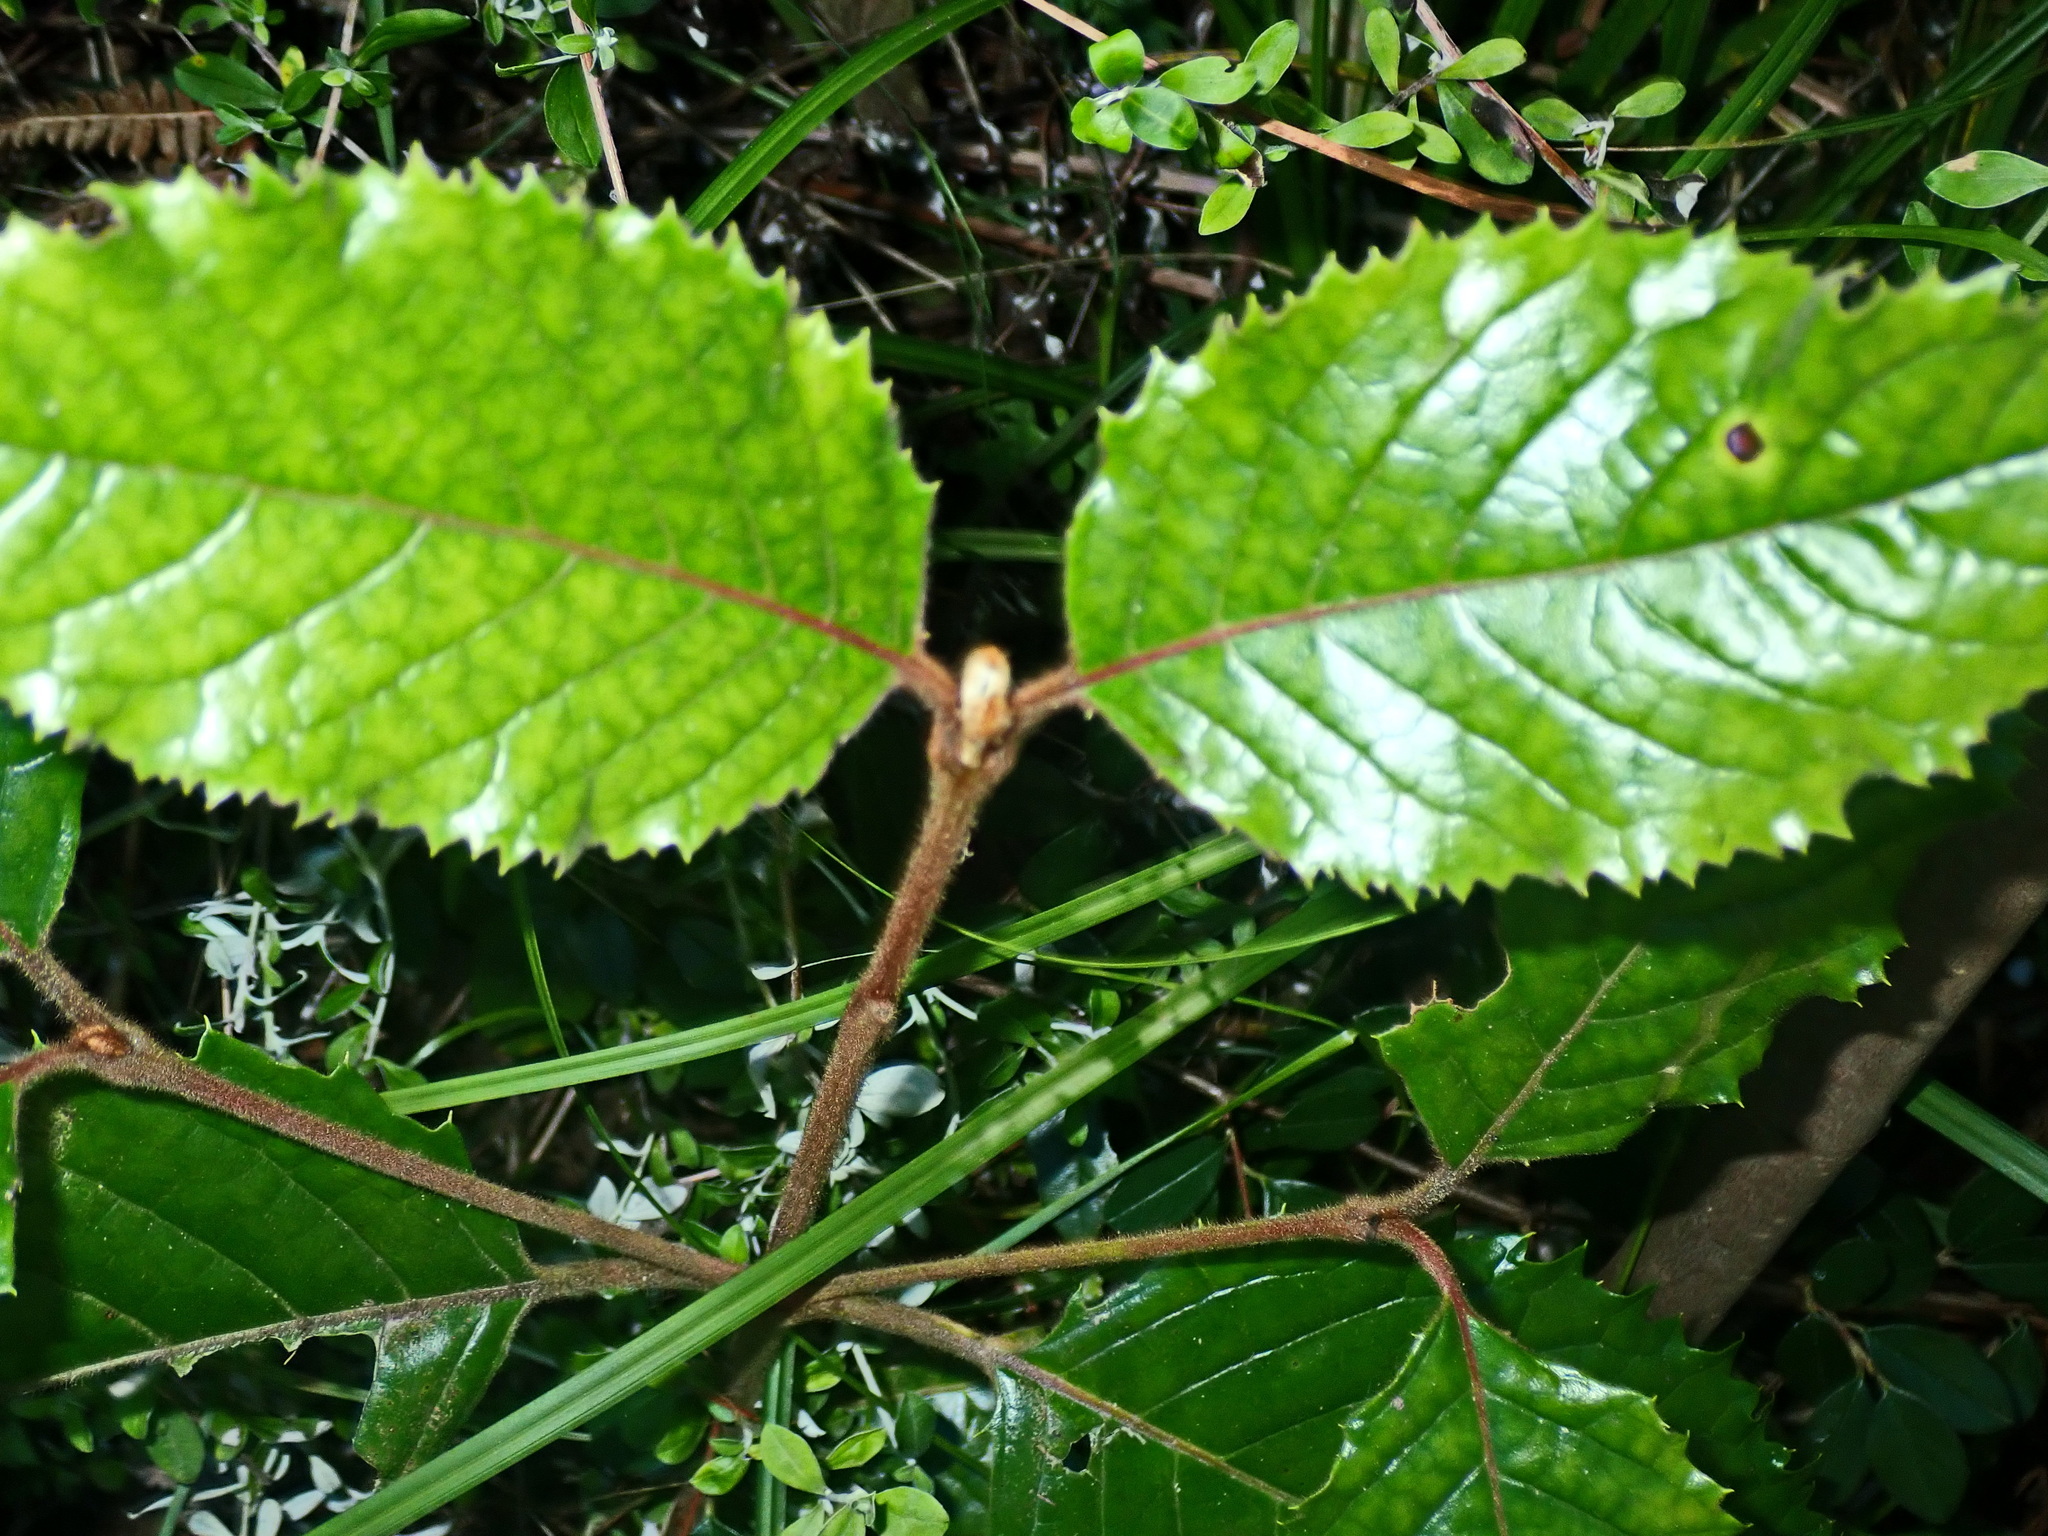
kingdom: Plantae
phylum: Tracheophyta
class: Magnoliopsida
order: Cornales
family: Curtisiaceae
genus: Curtisia
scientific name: Curtisia dentata
